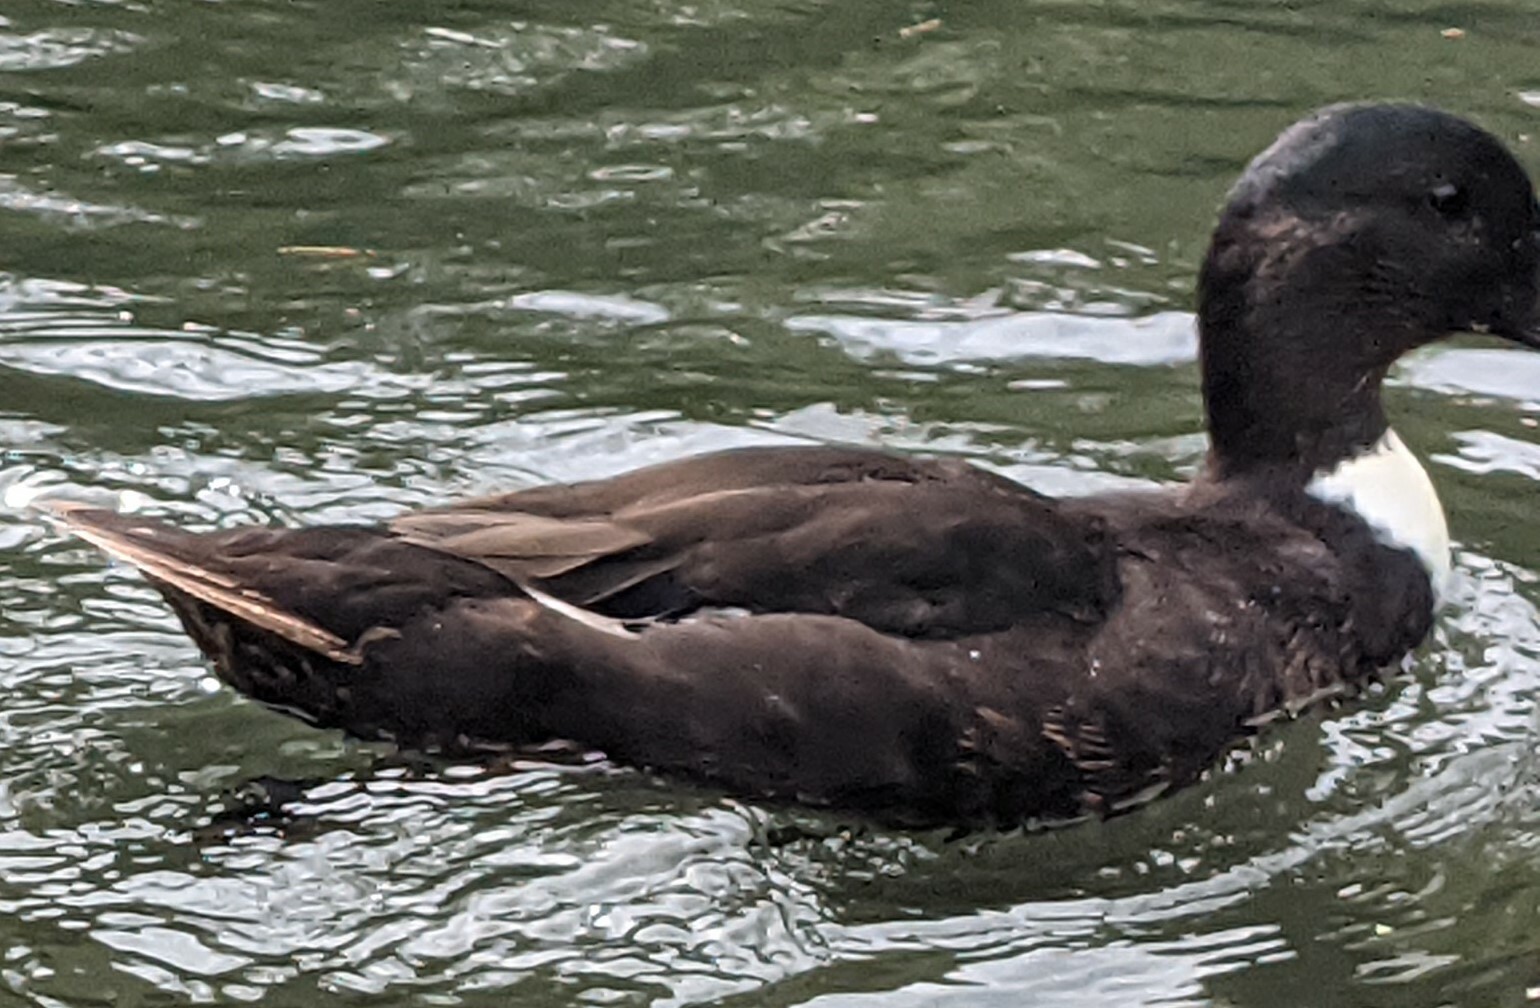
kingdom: Animalia
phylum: Chordata
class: Aves
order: Anseriformes
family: Anatidae
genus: Anas
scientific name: Anas platyrhynchos
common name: Mallard
